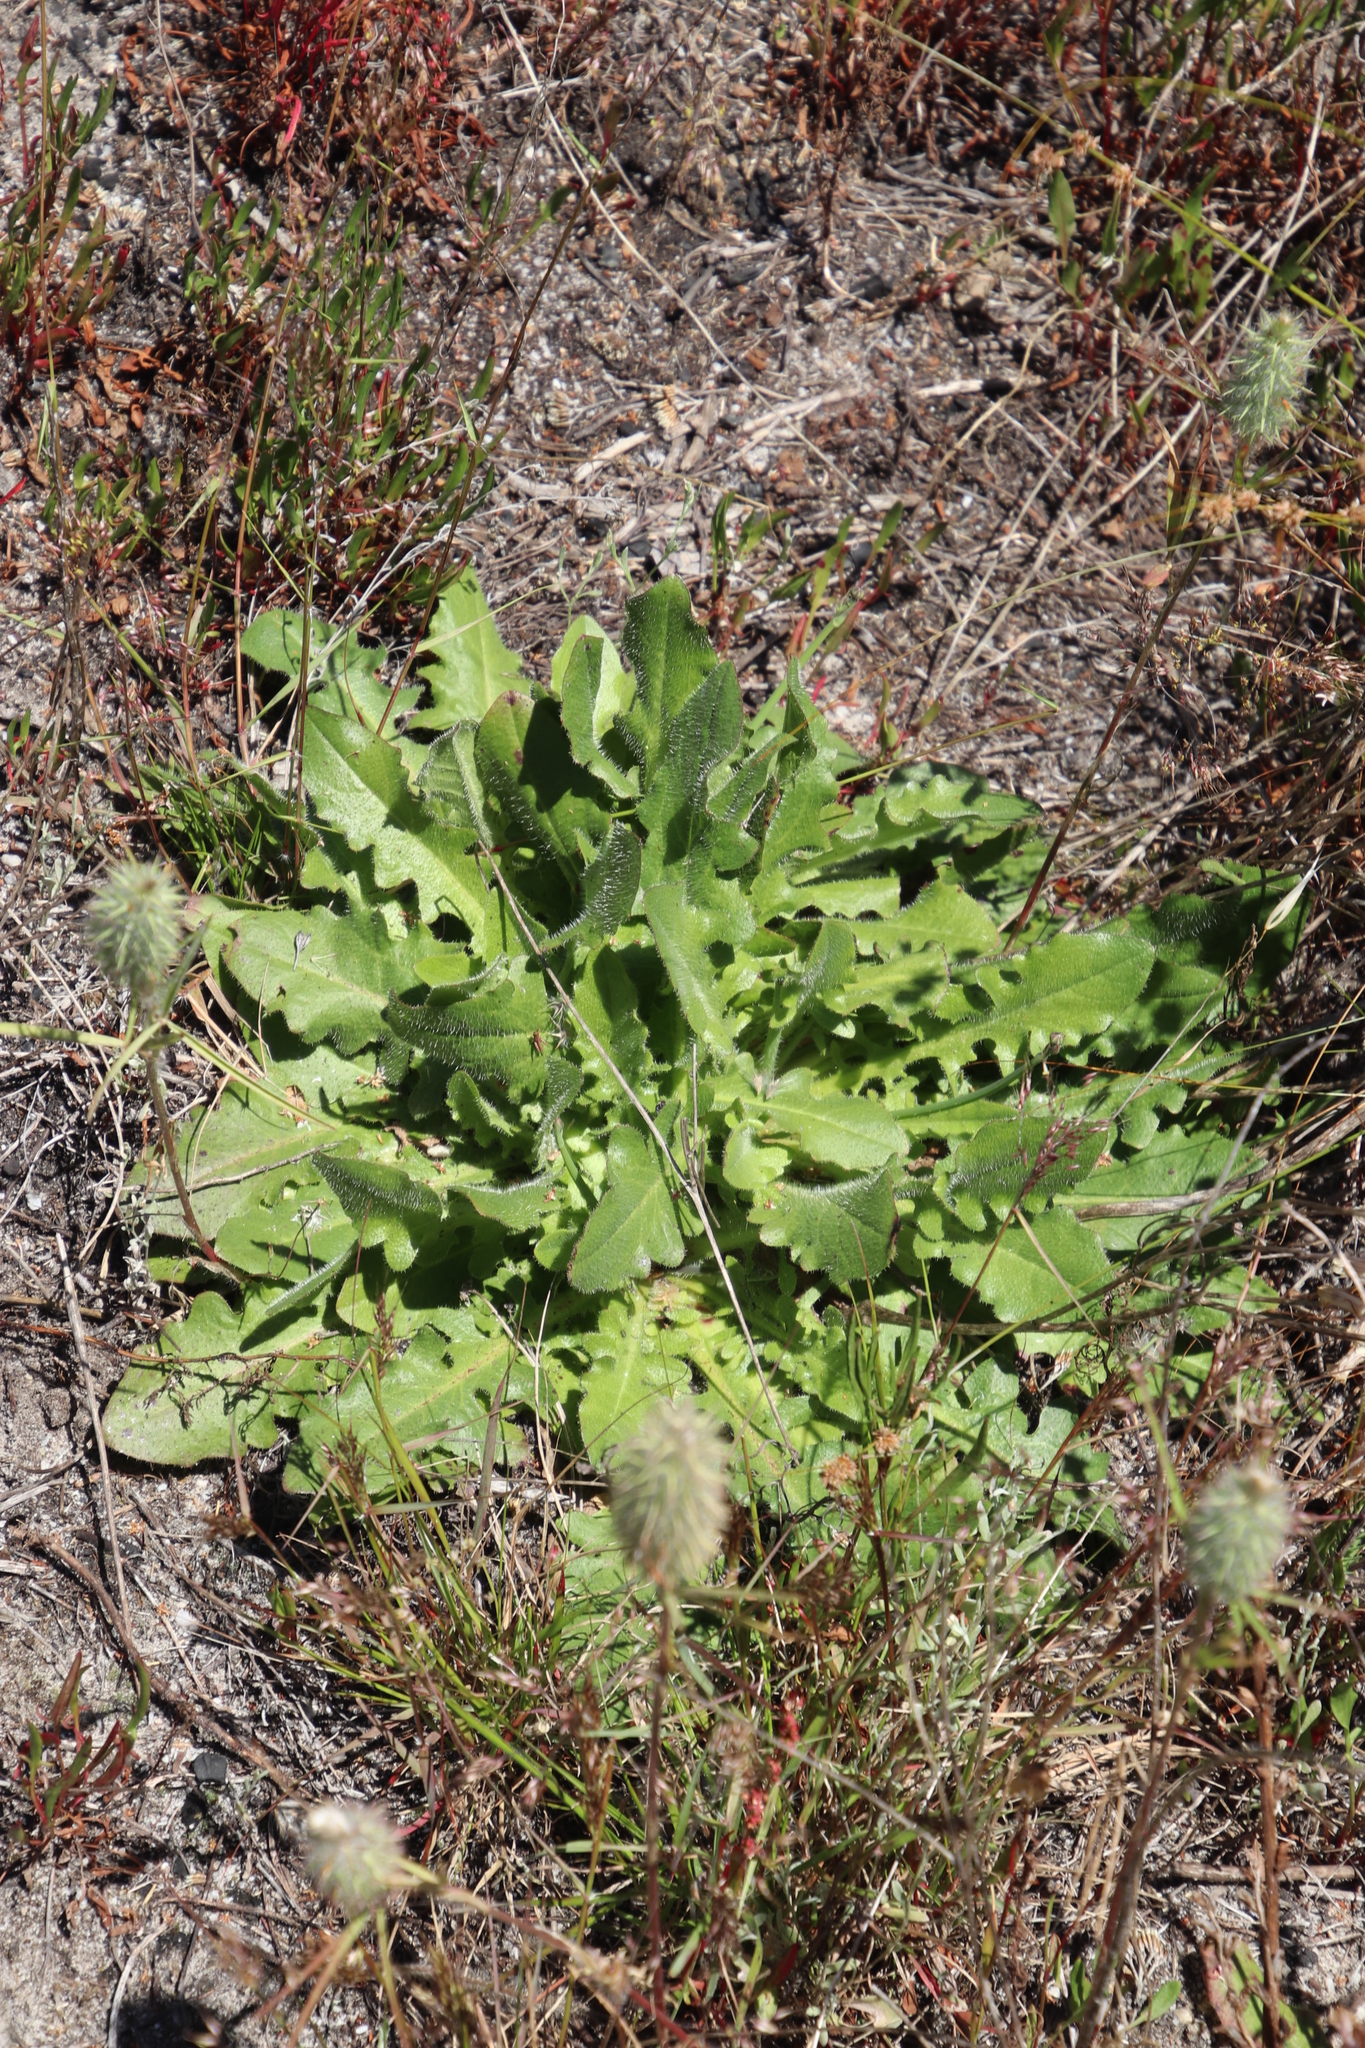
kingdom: Plantae
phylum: Tracheophyta
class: Magnoliopsida
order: Asterales
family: Asteraceae
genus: Hypochaeris
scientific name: Hypochaeris radicata
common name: Flatweed
